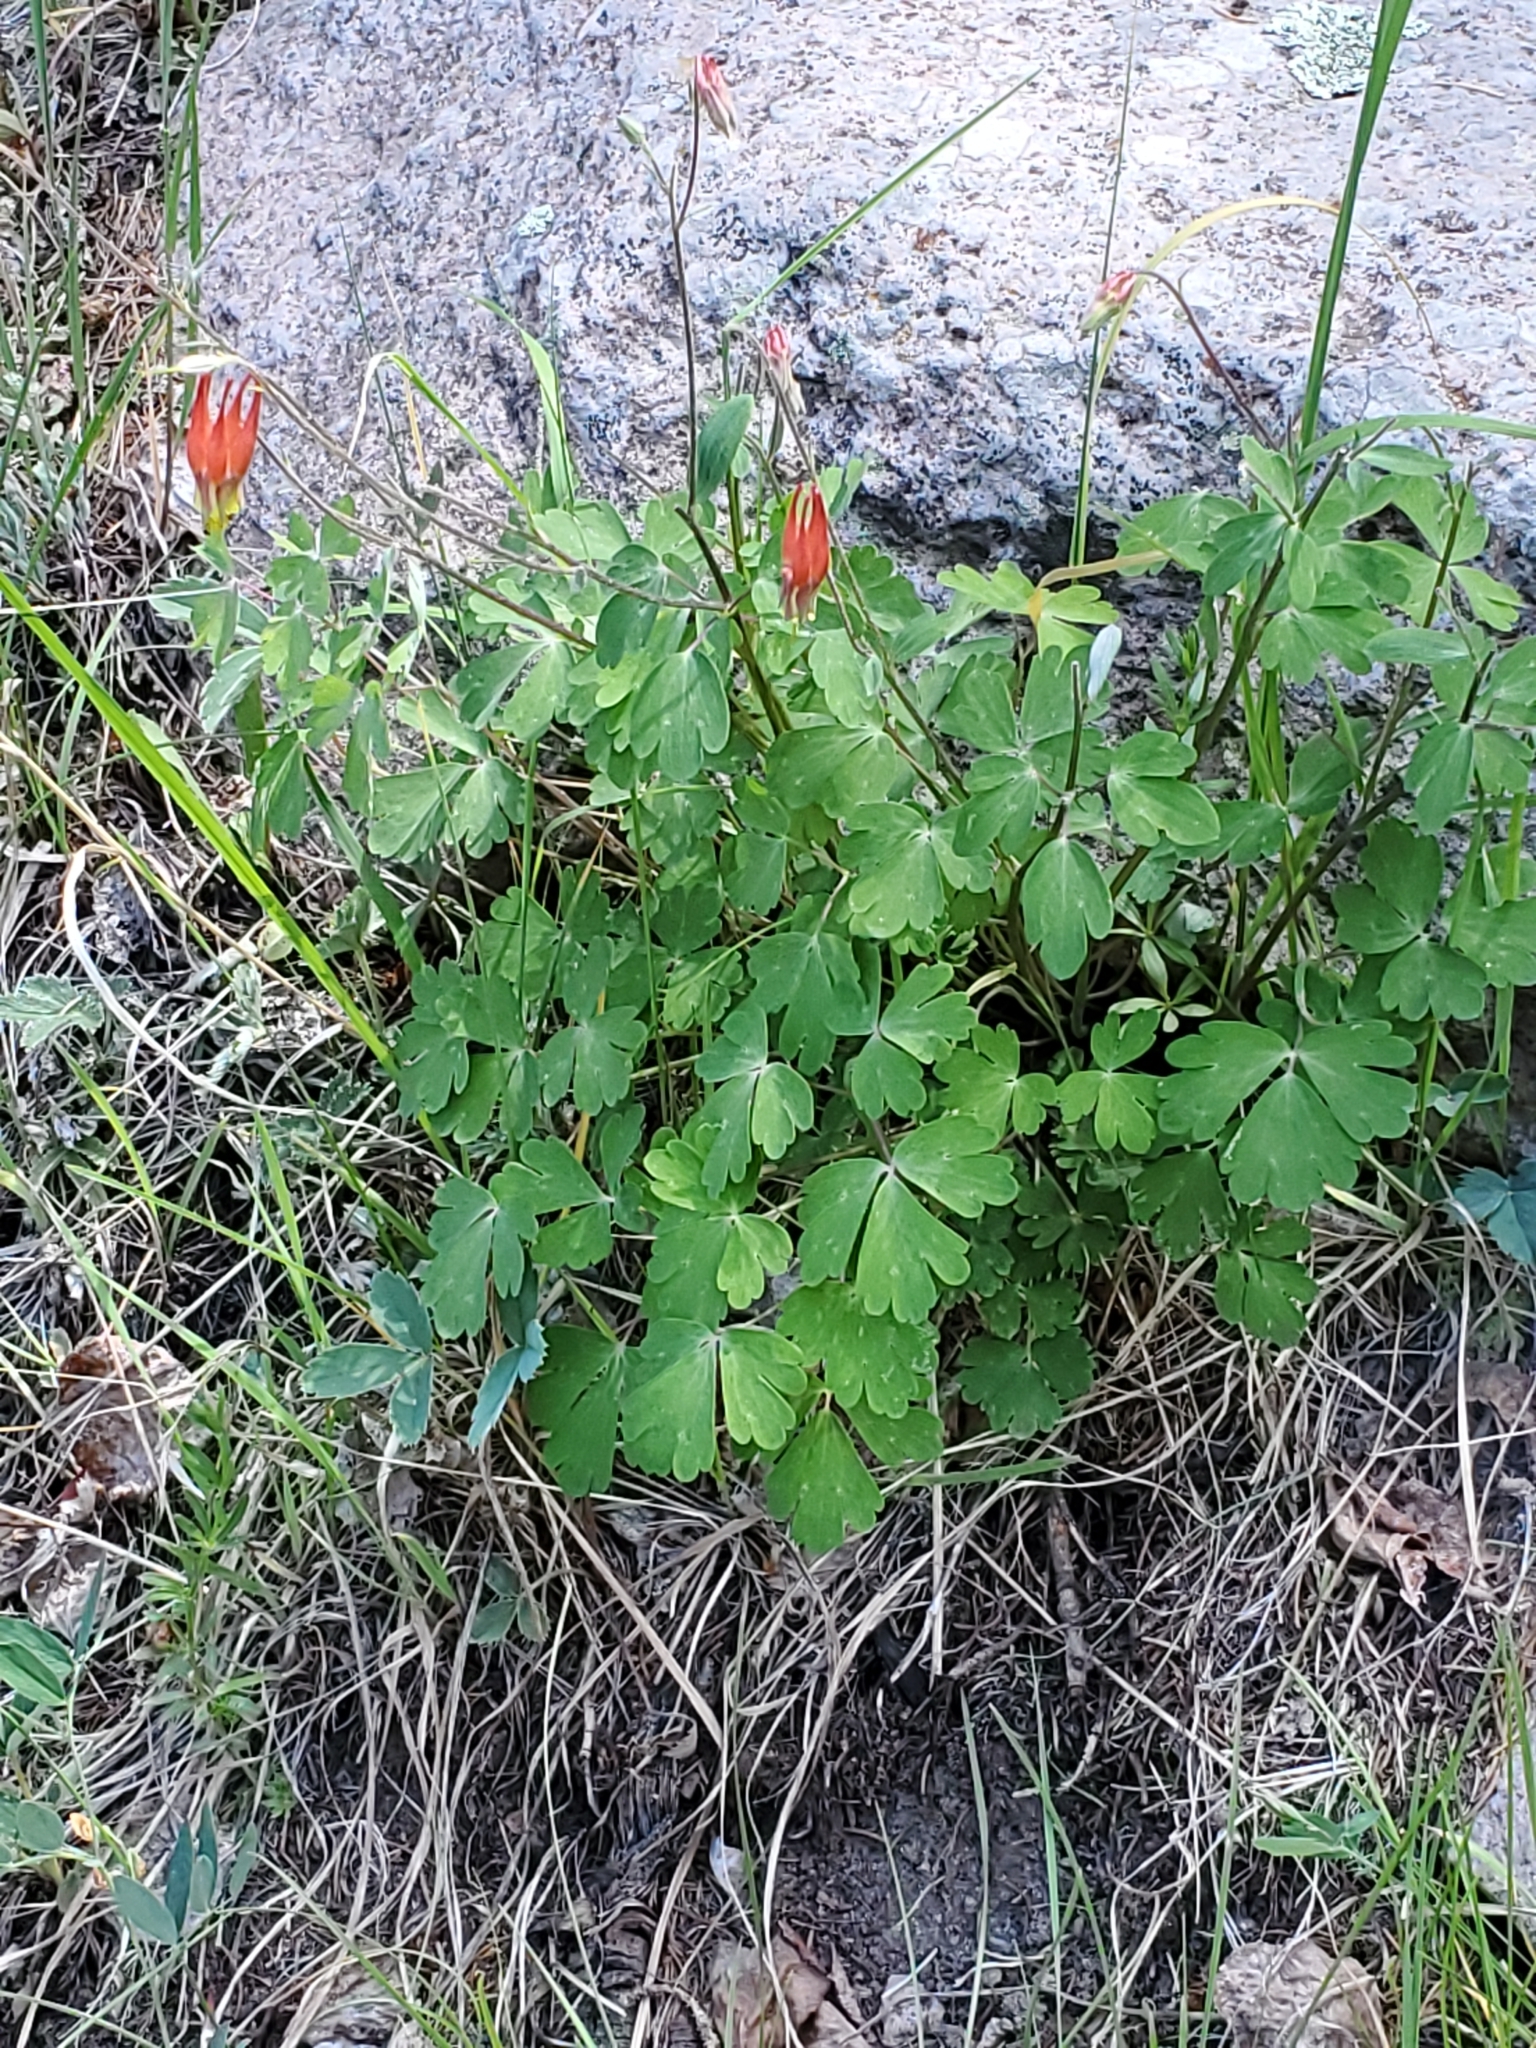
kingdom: Plantae
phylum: Tracheophyta
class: Magnoliopsida
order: Ranunculales
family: Ranunculaceae
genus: Aquilegia
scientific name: Aquilegia elegantula
